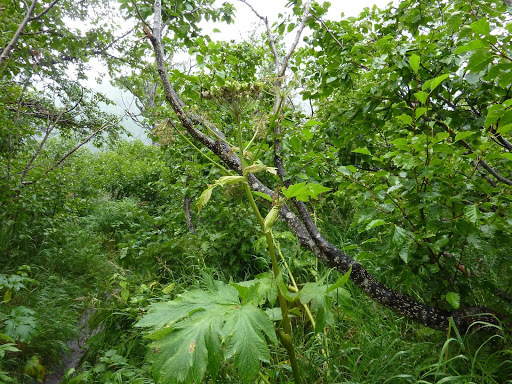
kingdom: Plantae
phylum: Tracheophyta
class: Magnoliopsida
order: Apiales
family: Apiaceae
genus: Heracleum
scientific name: Heracleum maximum
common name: American cow parsnip
